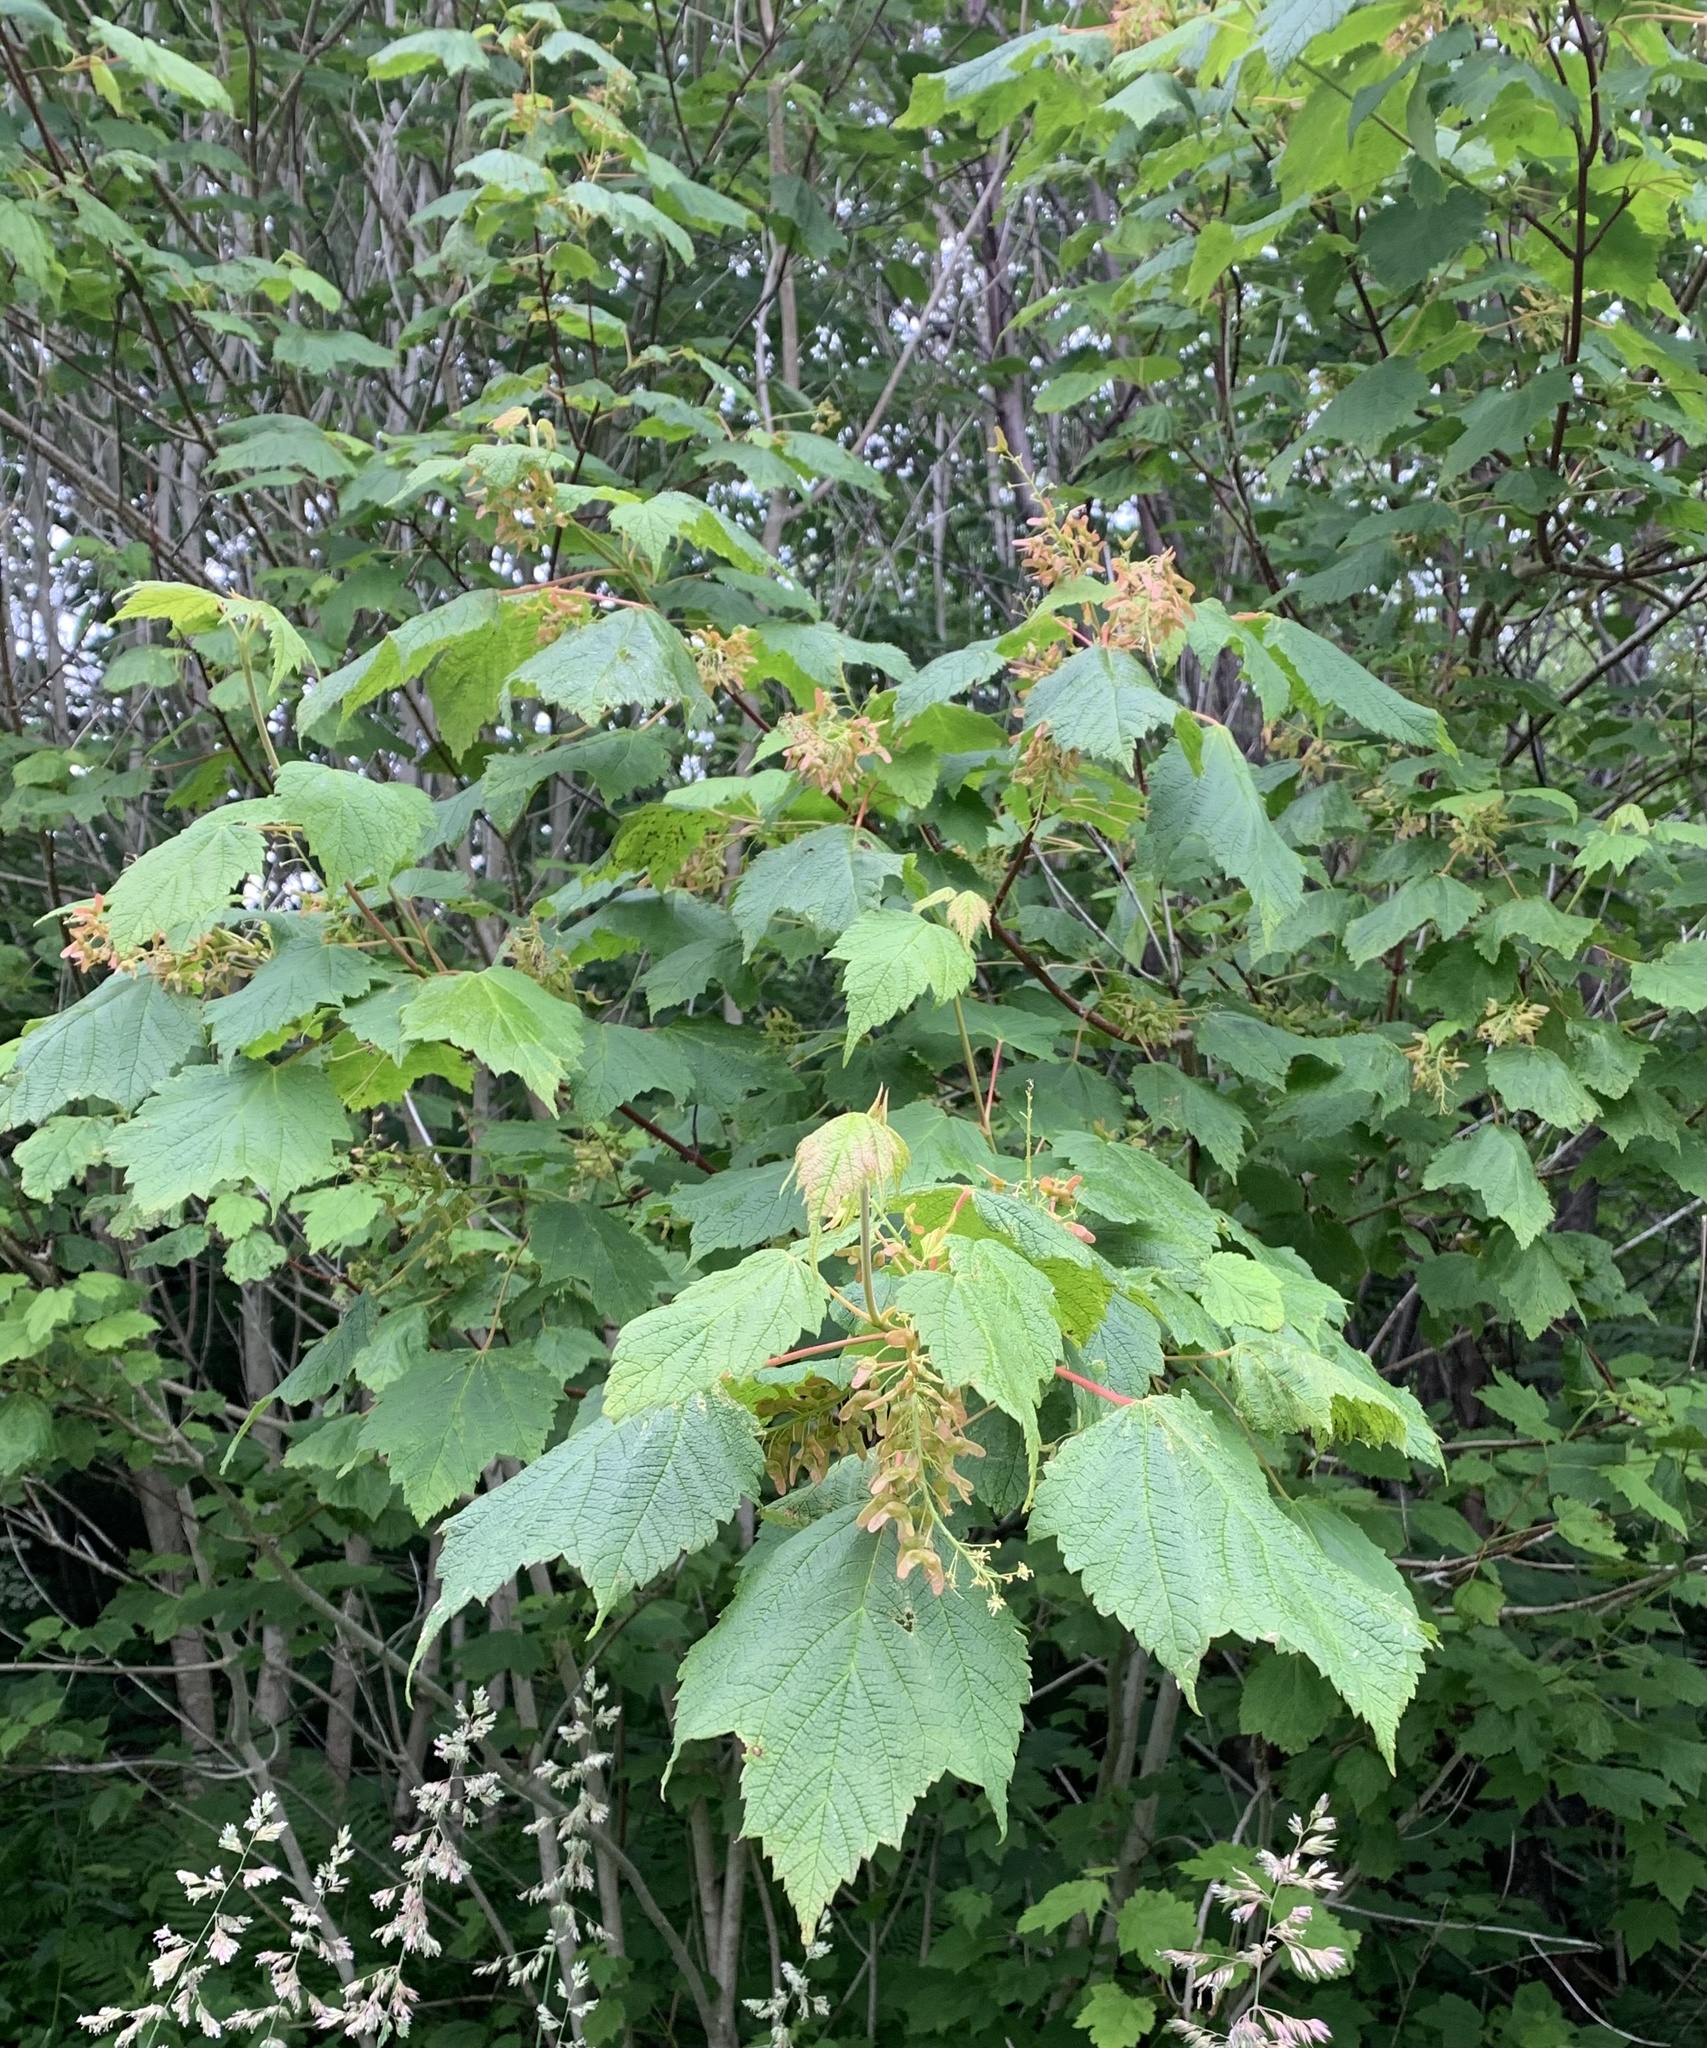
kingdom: Plantae
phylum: Tracheophyta
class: Magnoliopsida
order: Sapindales
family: Sapindaceae
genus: Acer
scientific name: Acer spicatum
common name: Mountain maple
